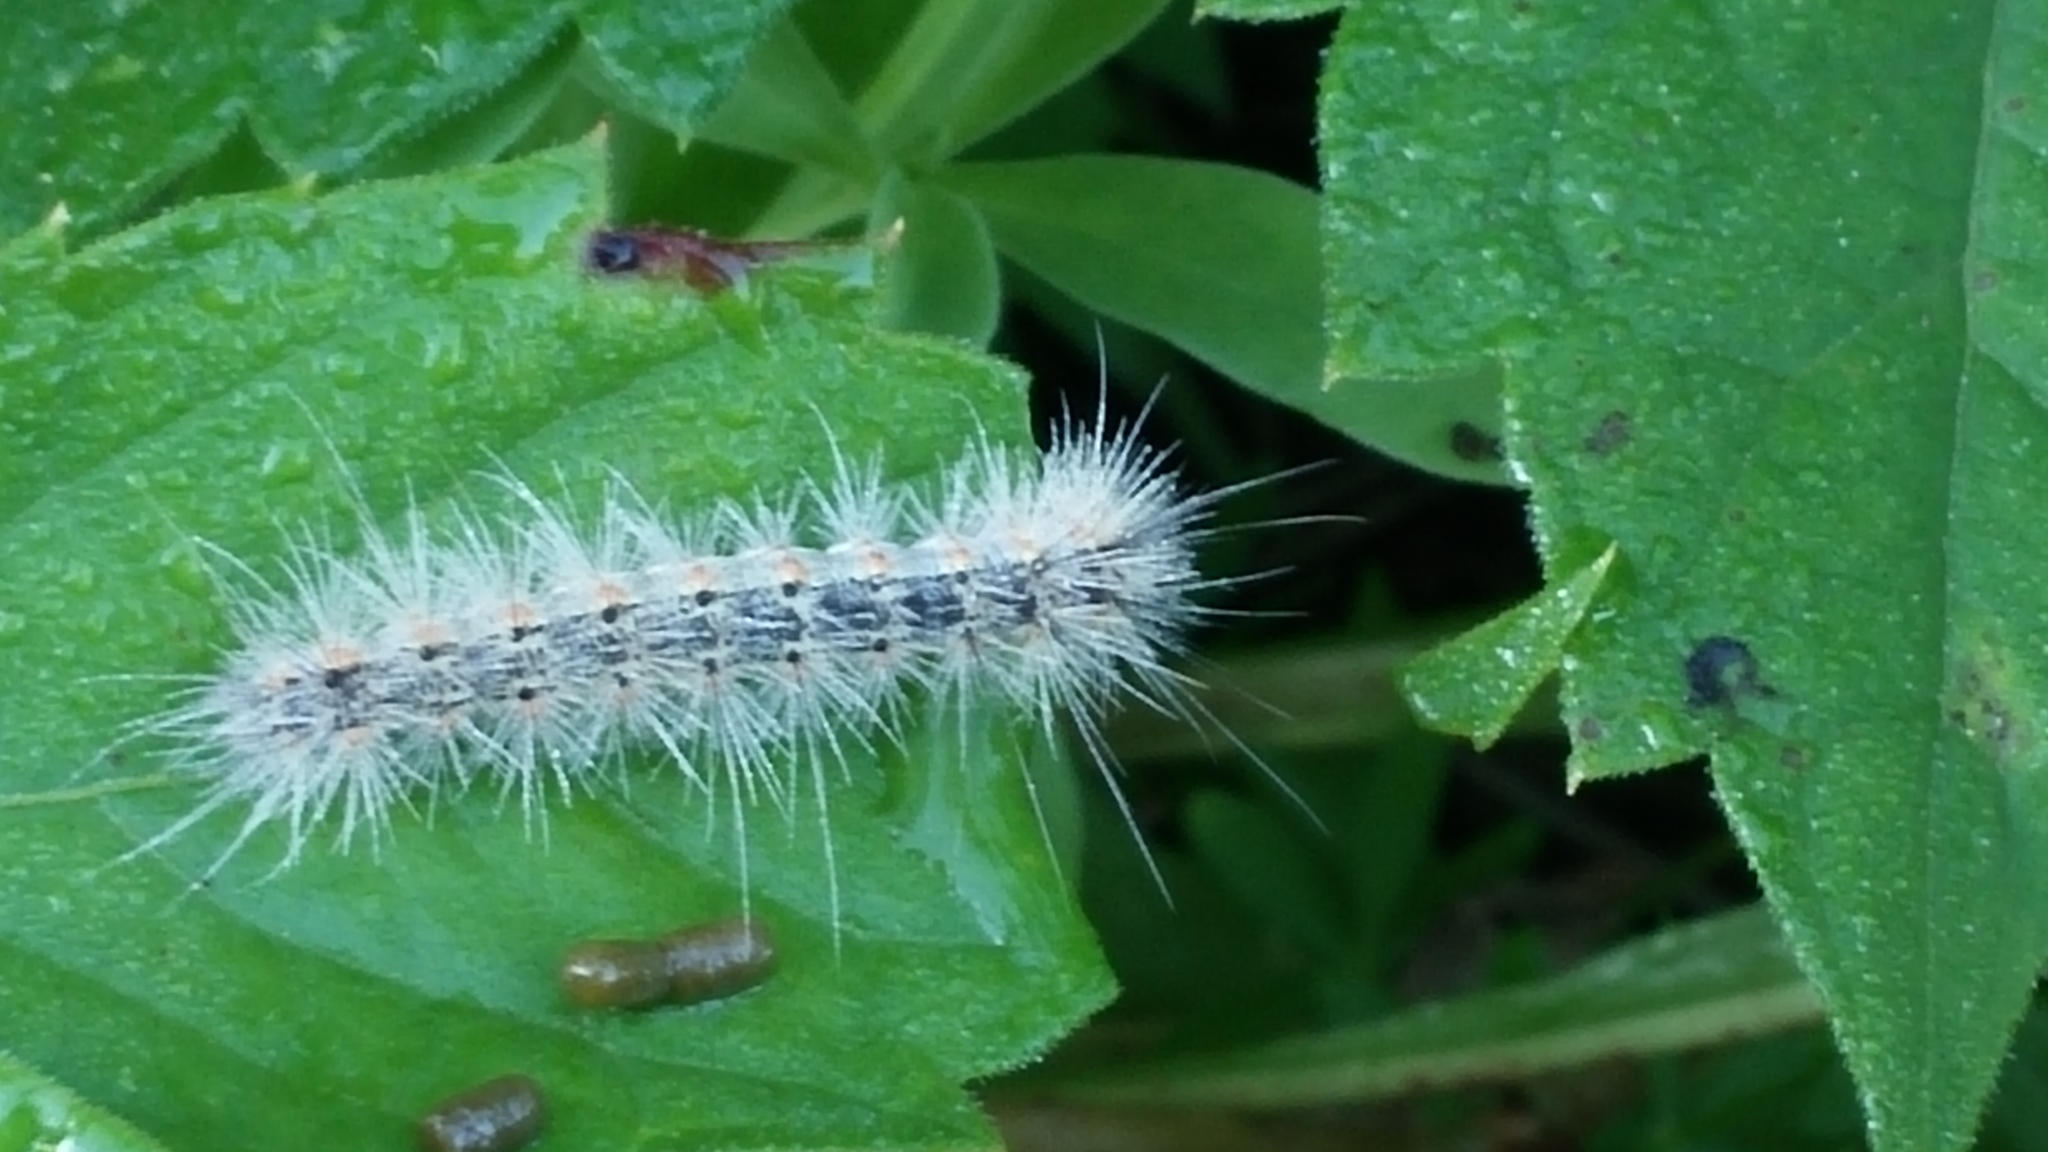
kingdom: Animalia
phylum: Arthropoda
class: Insecta
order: Lepidoptera
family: Erebidae
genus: Hyphantria
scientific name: Hyphantria cunea
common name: American white moth
